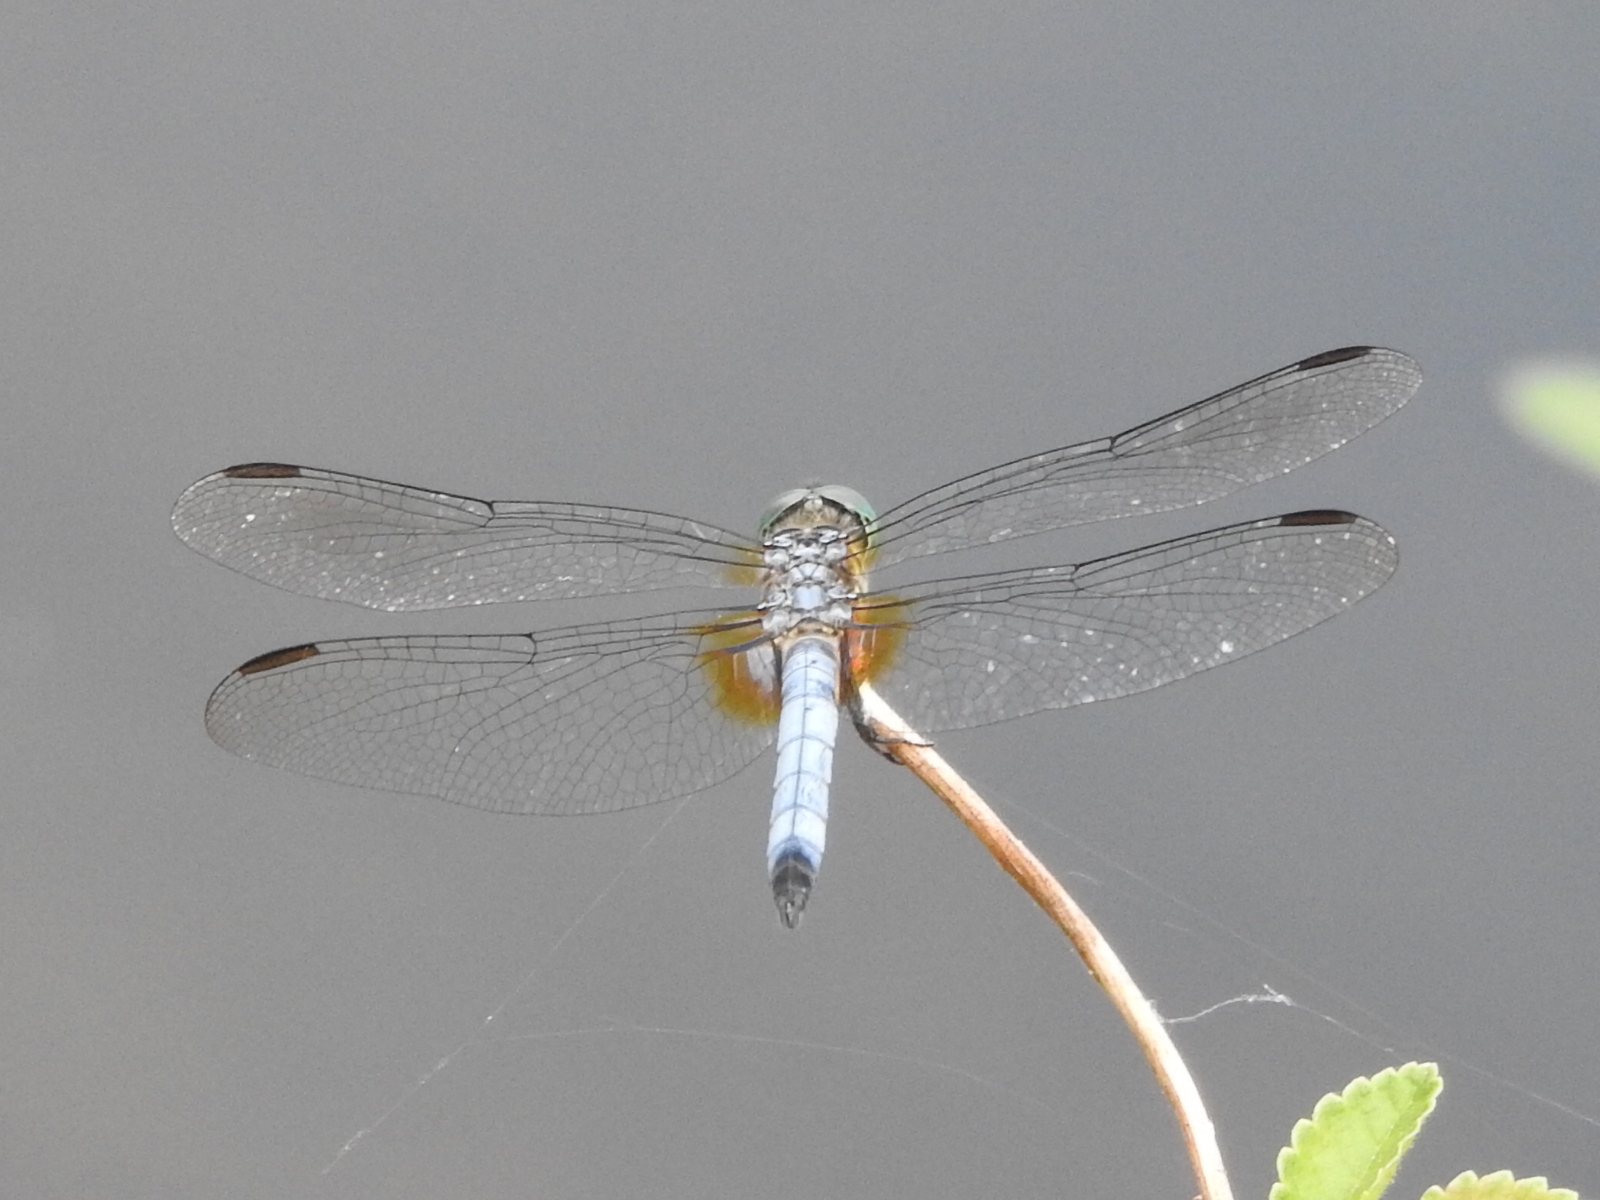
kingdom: Animalia
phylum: Arthropoda
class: Insecta
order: Odonata
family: Libellulidae
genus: Pachydiplax
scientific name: Pachydiplax longipennis
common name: Blue dasher
